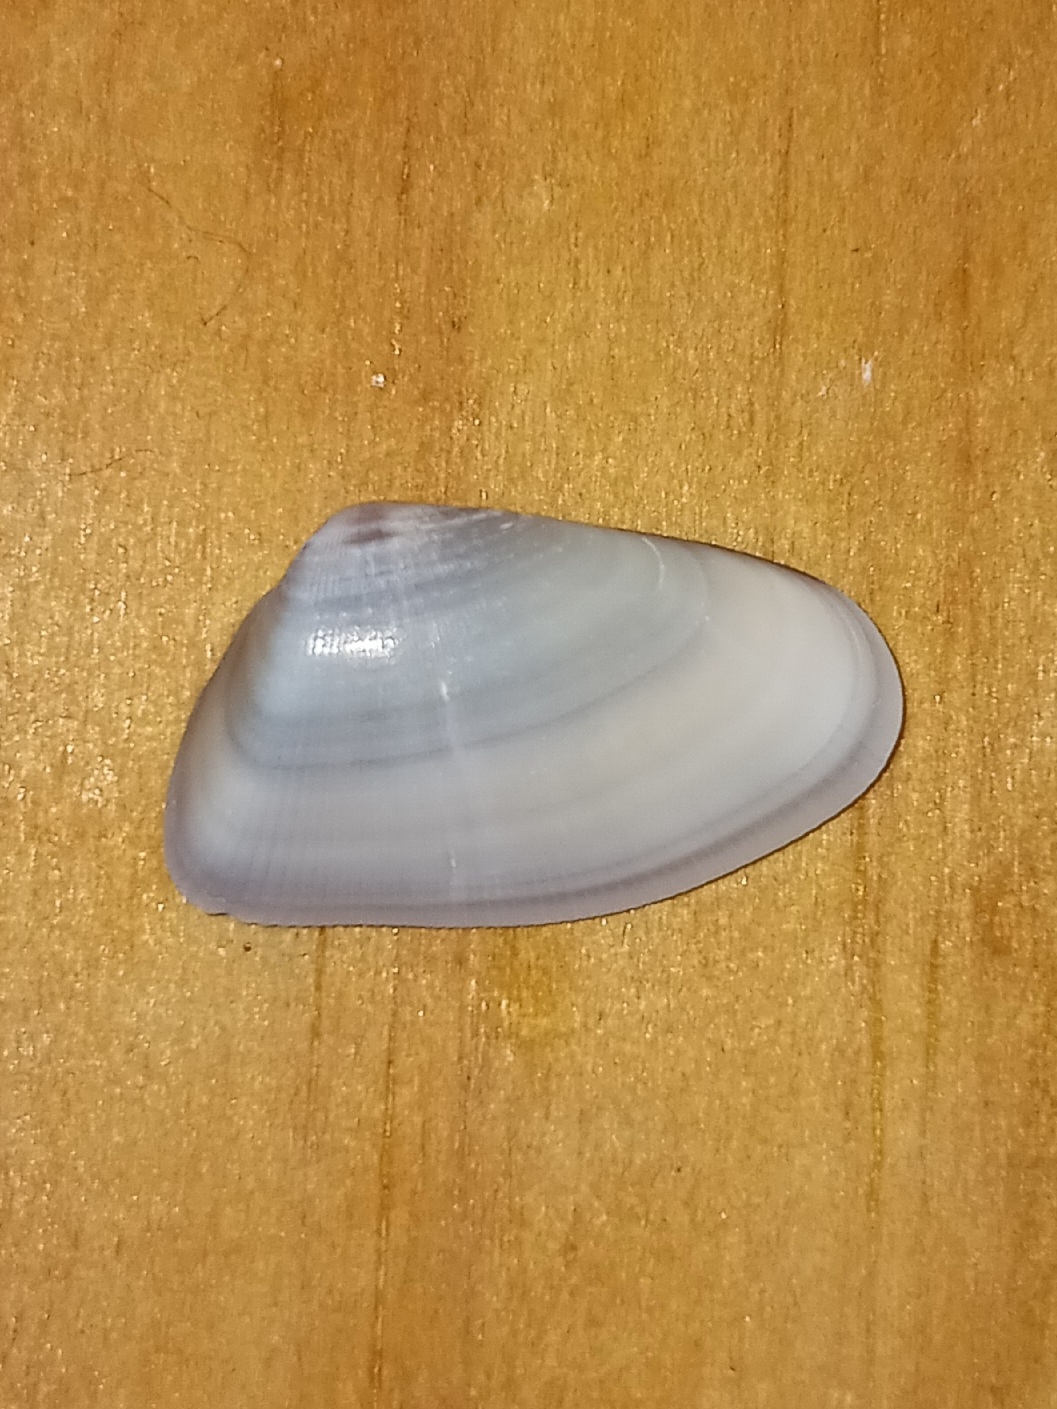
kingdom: Animalia
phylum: Mollusca
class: Bivalvia
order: Cardiida
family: Donacidae
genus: Donax
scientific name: Donax variabilis
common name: Butterfly shell
